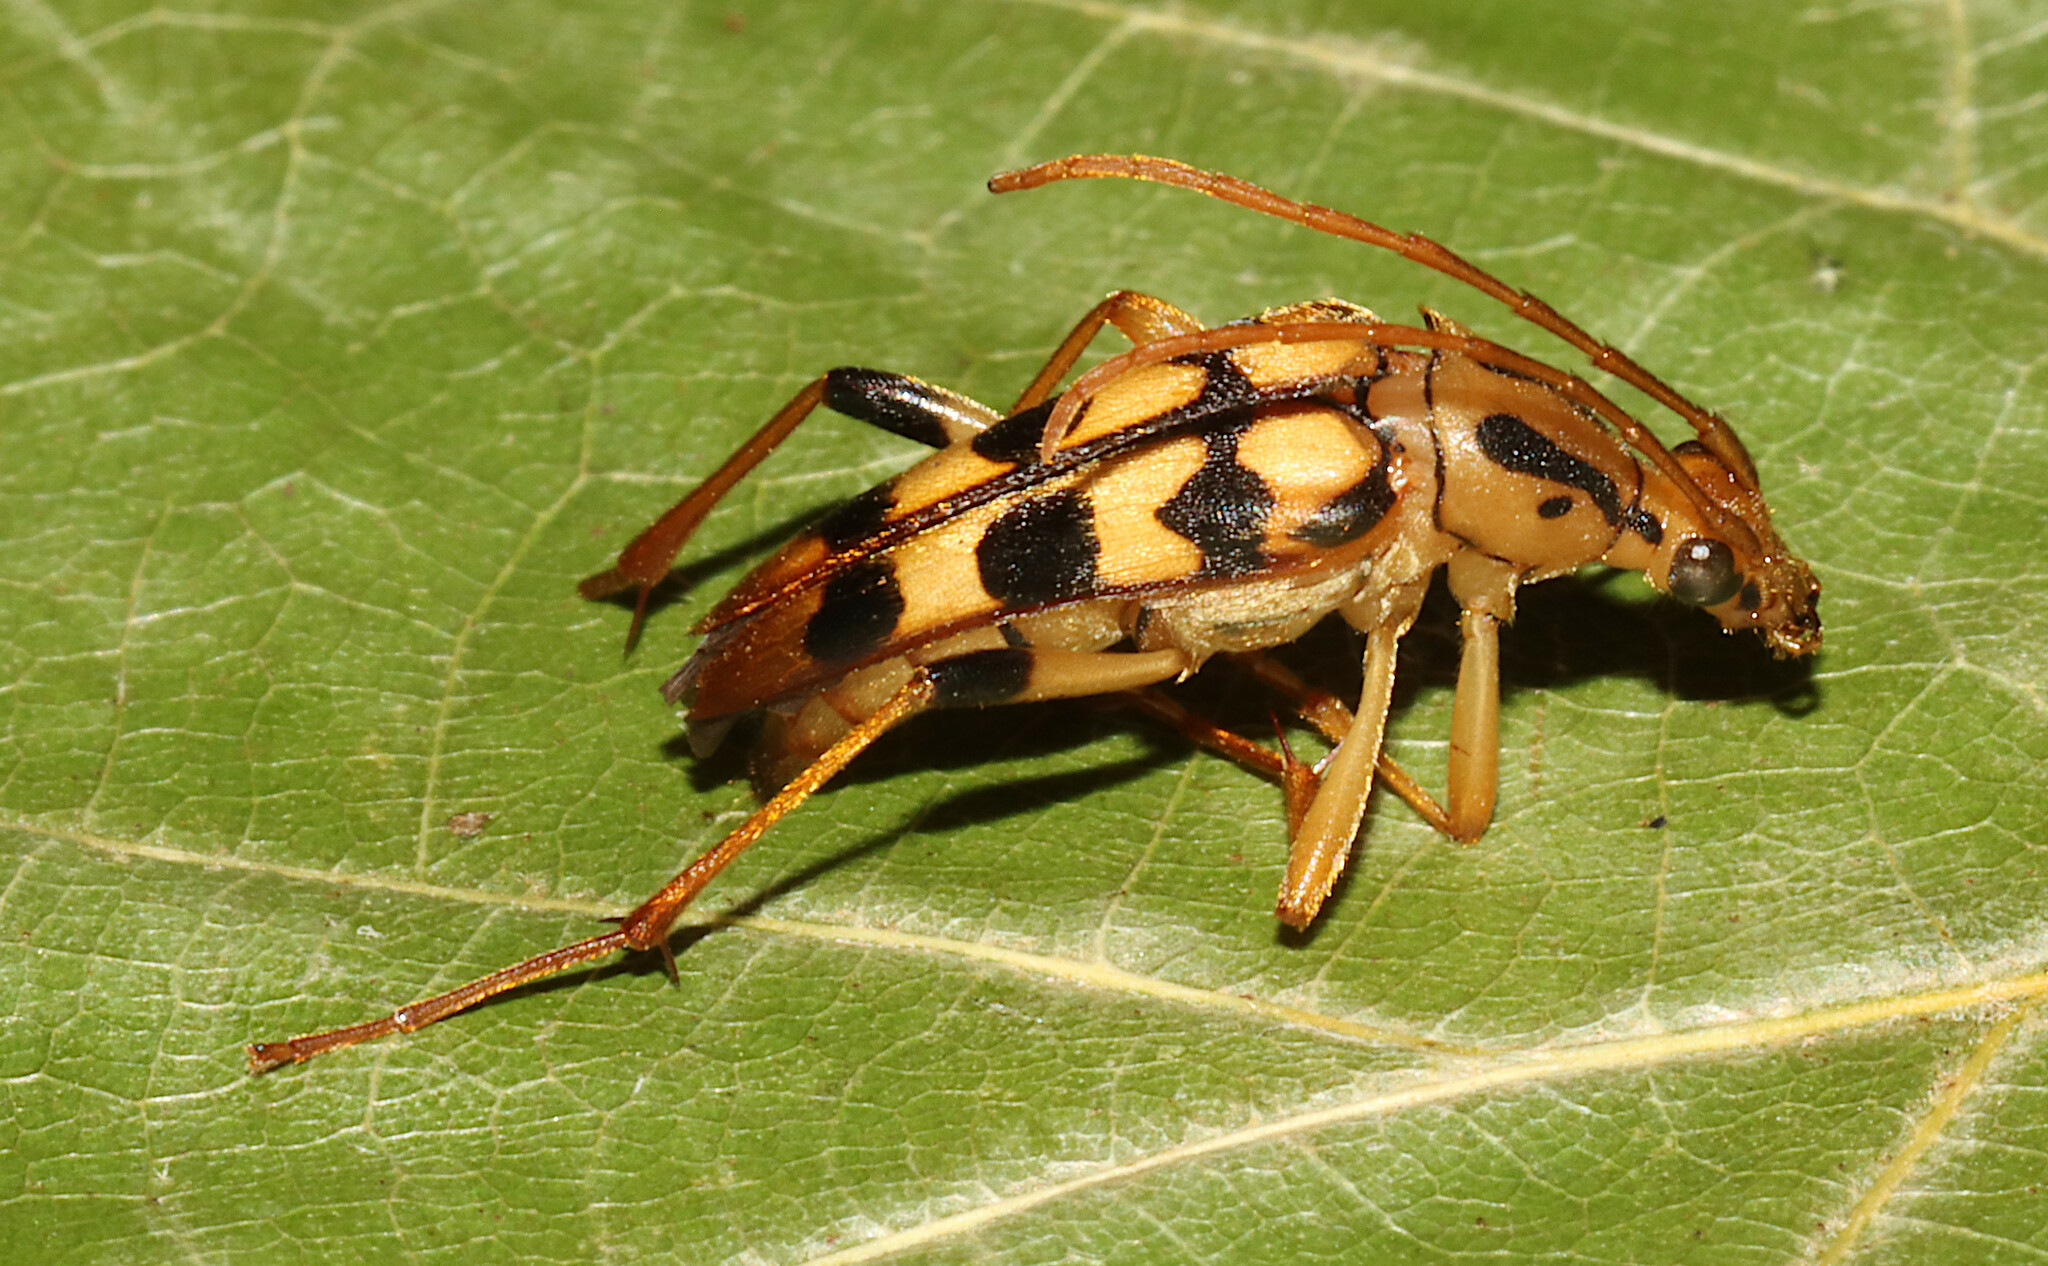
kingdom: Animalia
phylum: Arthropoda
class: Insecta
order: Coleoptera
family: Cerambycidae
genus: Strangalia
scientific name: Strangalia luteicornis
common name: Yellow-horned flower longhorn beetle
